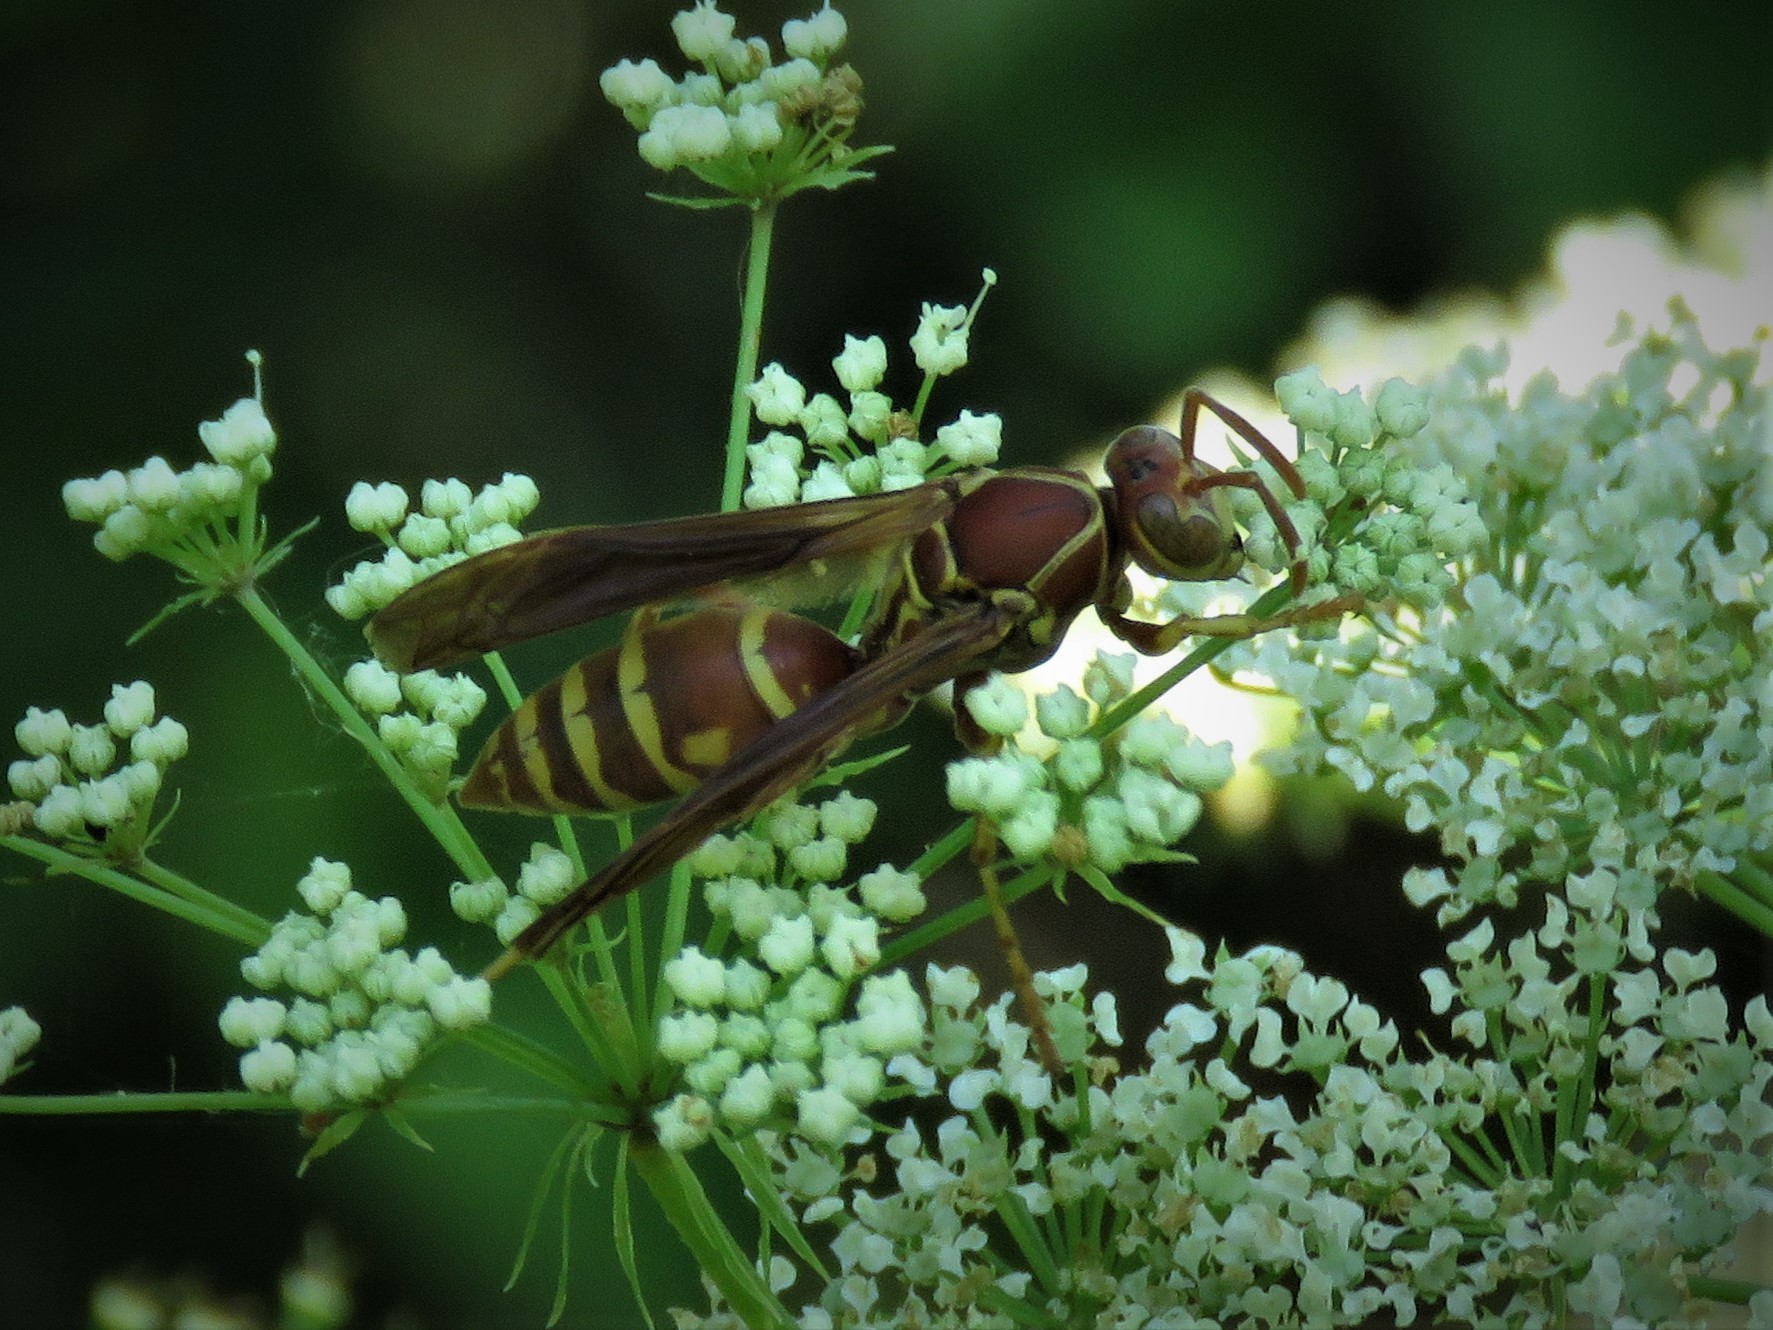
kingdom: Animalia
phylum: Arthropoda
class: Insecta
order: Hymenoptera
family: Eumenidae
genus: Polistes
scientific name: Polistes bellicosus
